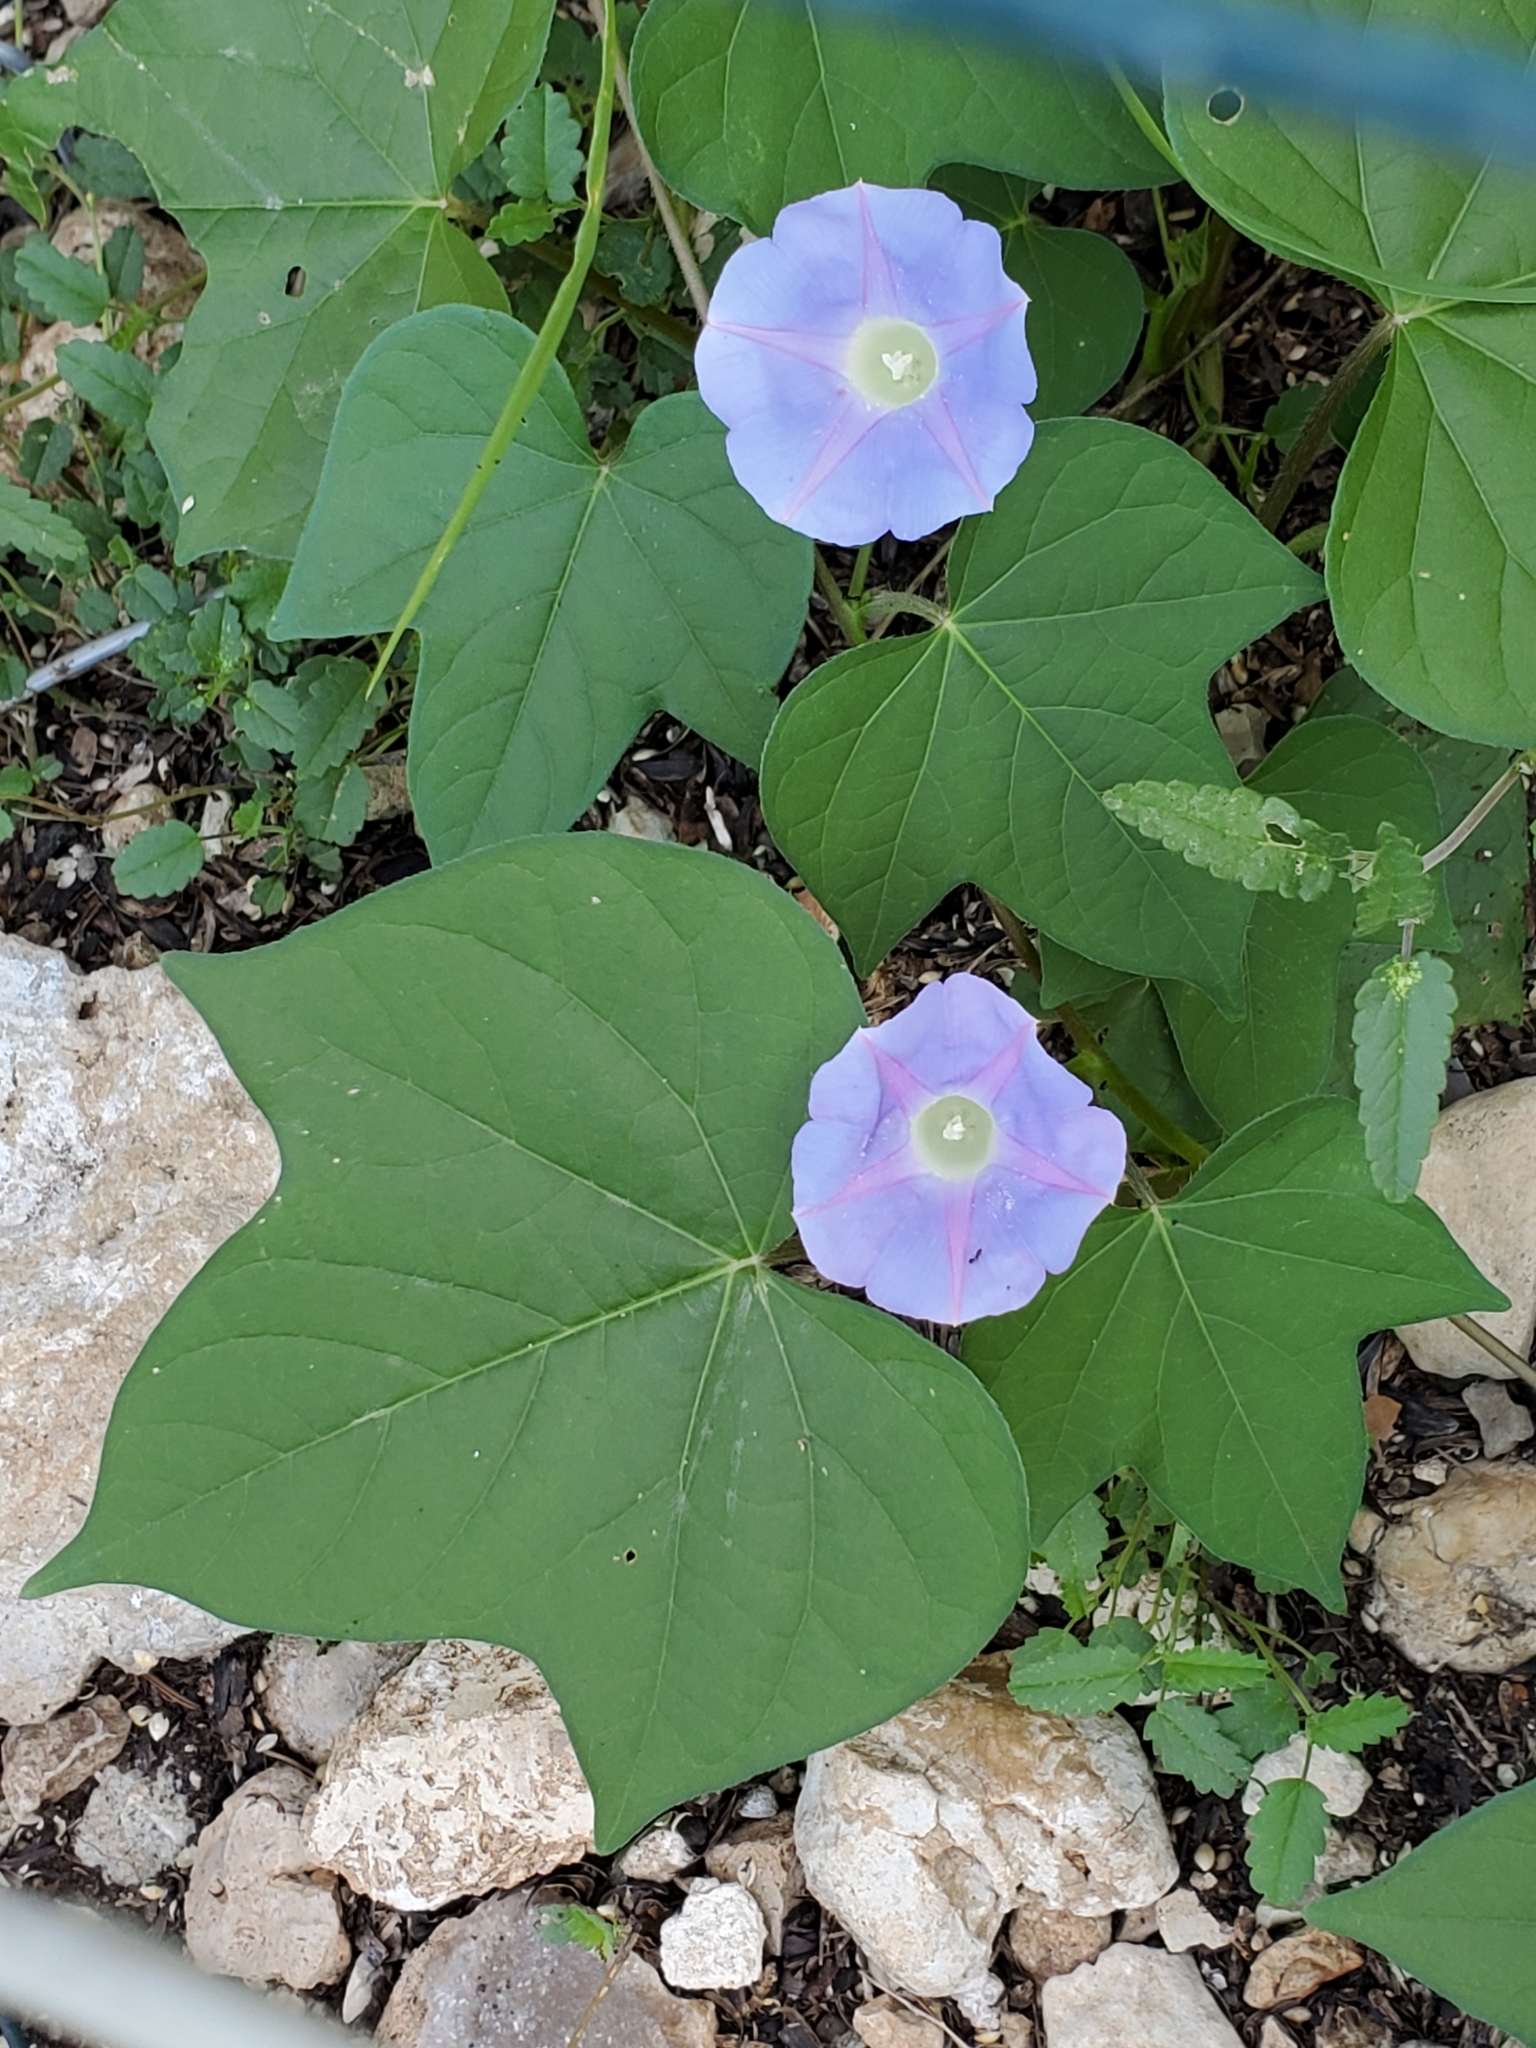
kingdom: Plantae
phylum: Tracheophyta
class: Magnoliopsida
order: Solanales
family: Convolvulaceae
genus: Ipomoea
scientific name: Ipomoea hederacea
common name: Ivy-leaved morning-glory
